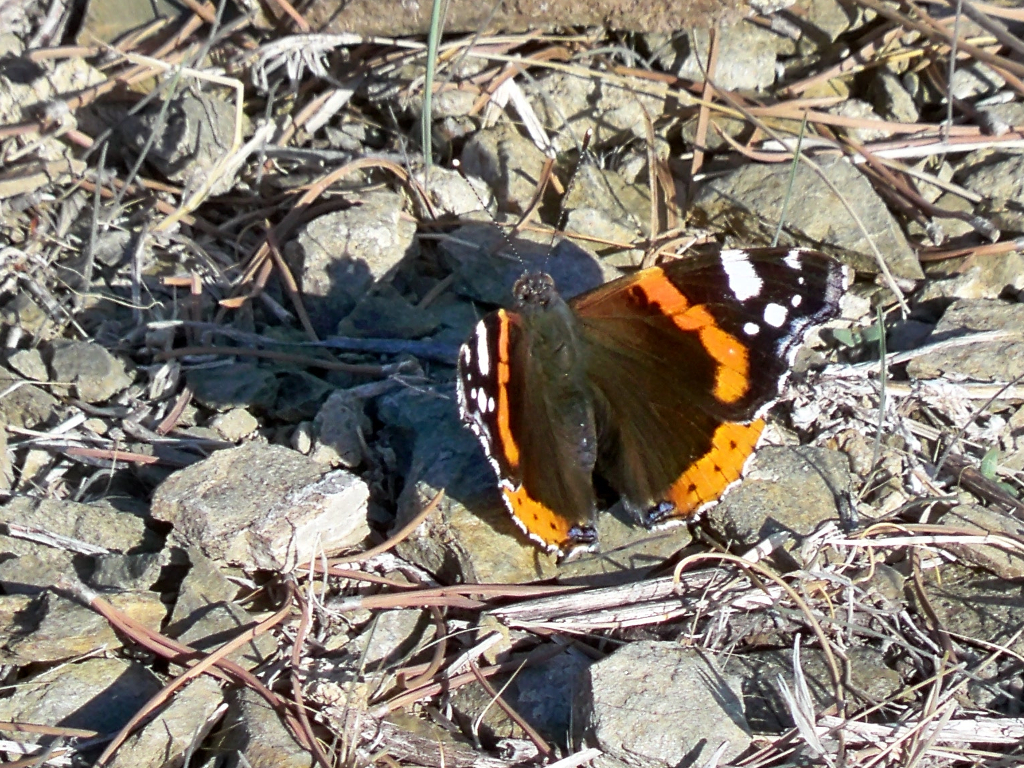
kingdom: Animalia
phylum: Arthropoda
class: Insecta
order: Lepidoptera
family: Nymphalidae
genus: Vanessa
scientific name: Vanessa atalanta
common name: Red admiral
